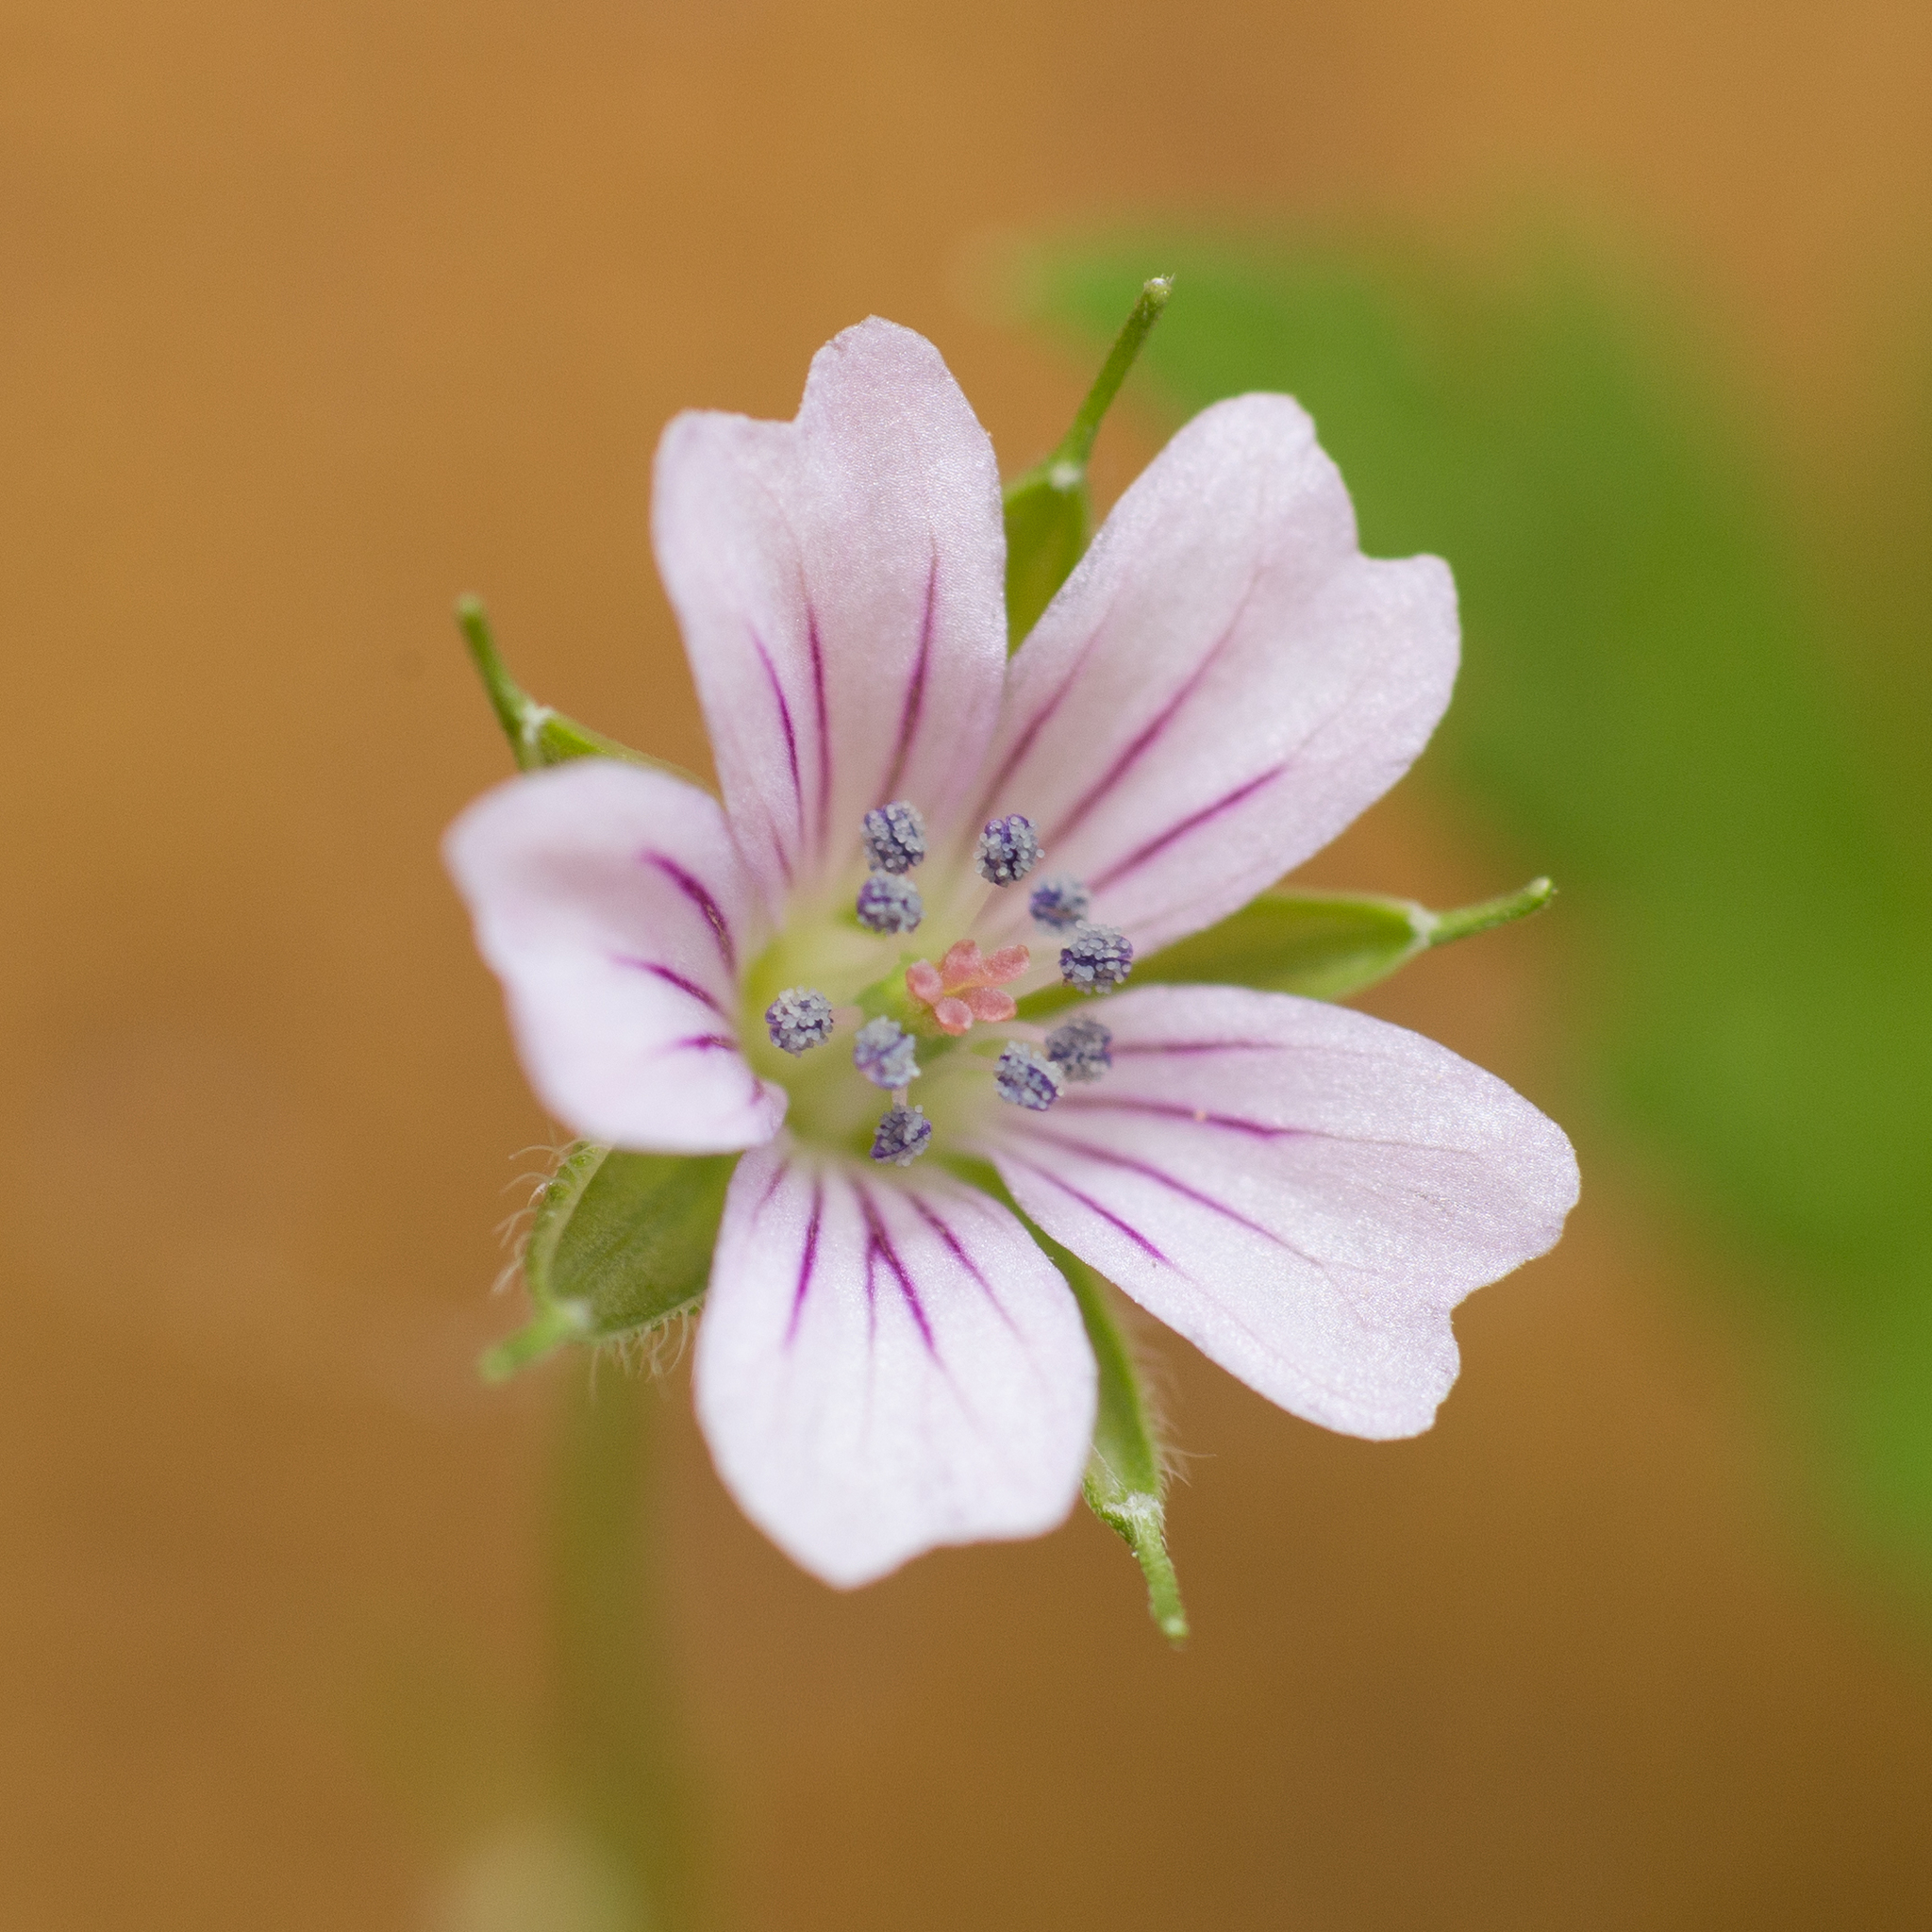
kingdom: Plantae
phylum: Tracheophyta
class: Magnoliopsida
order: Geraniales
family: Geraniaceae
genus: Geranium
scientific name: Geranium sibiricum
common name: Siberian crane's-bill
